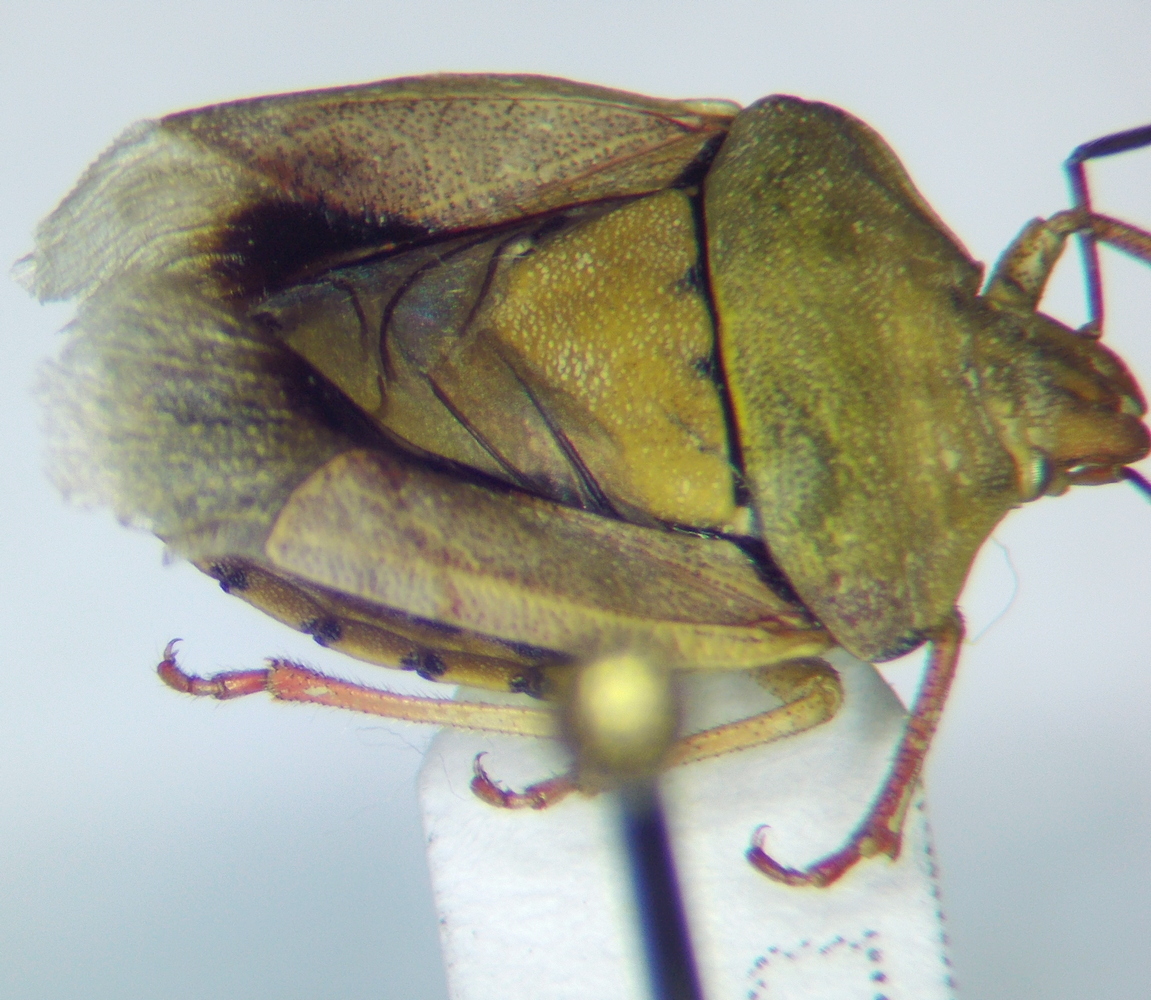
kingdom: Animalia
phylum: Arthropoda
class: Insecta
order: Hemiptera
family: Pentatomidae
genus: Antheminia
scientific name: Antheminia lunulata
